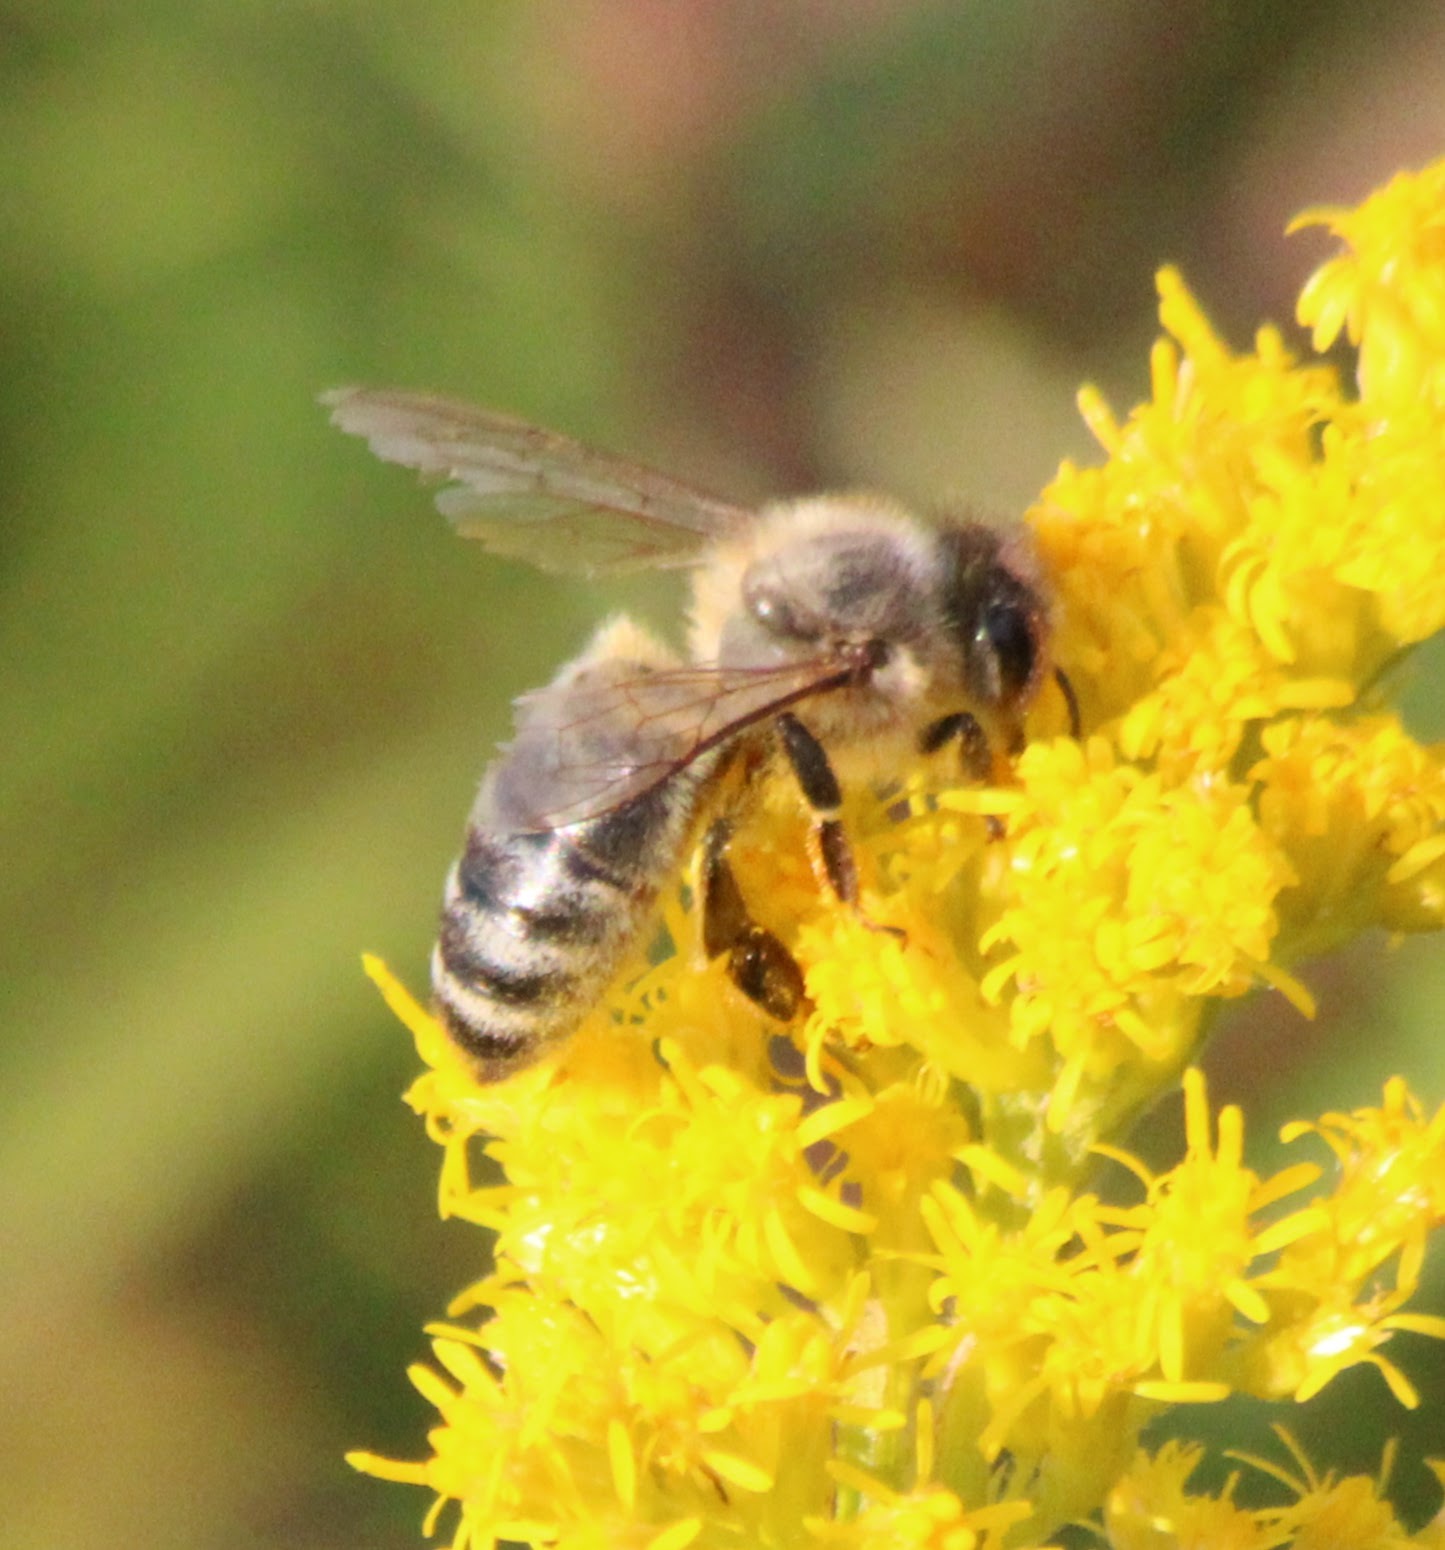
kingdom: Animalia
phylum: Arthropoda
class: Insecta
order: Hymenoptera
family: Apidae
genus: Apis
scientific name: Apis mellifera
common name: Honey bee
